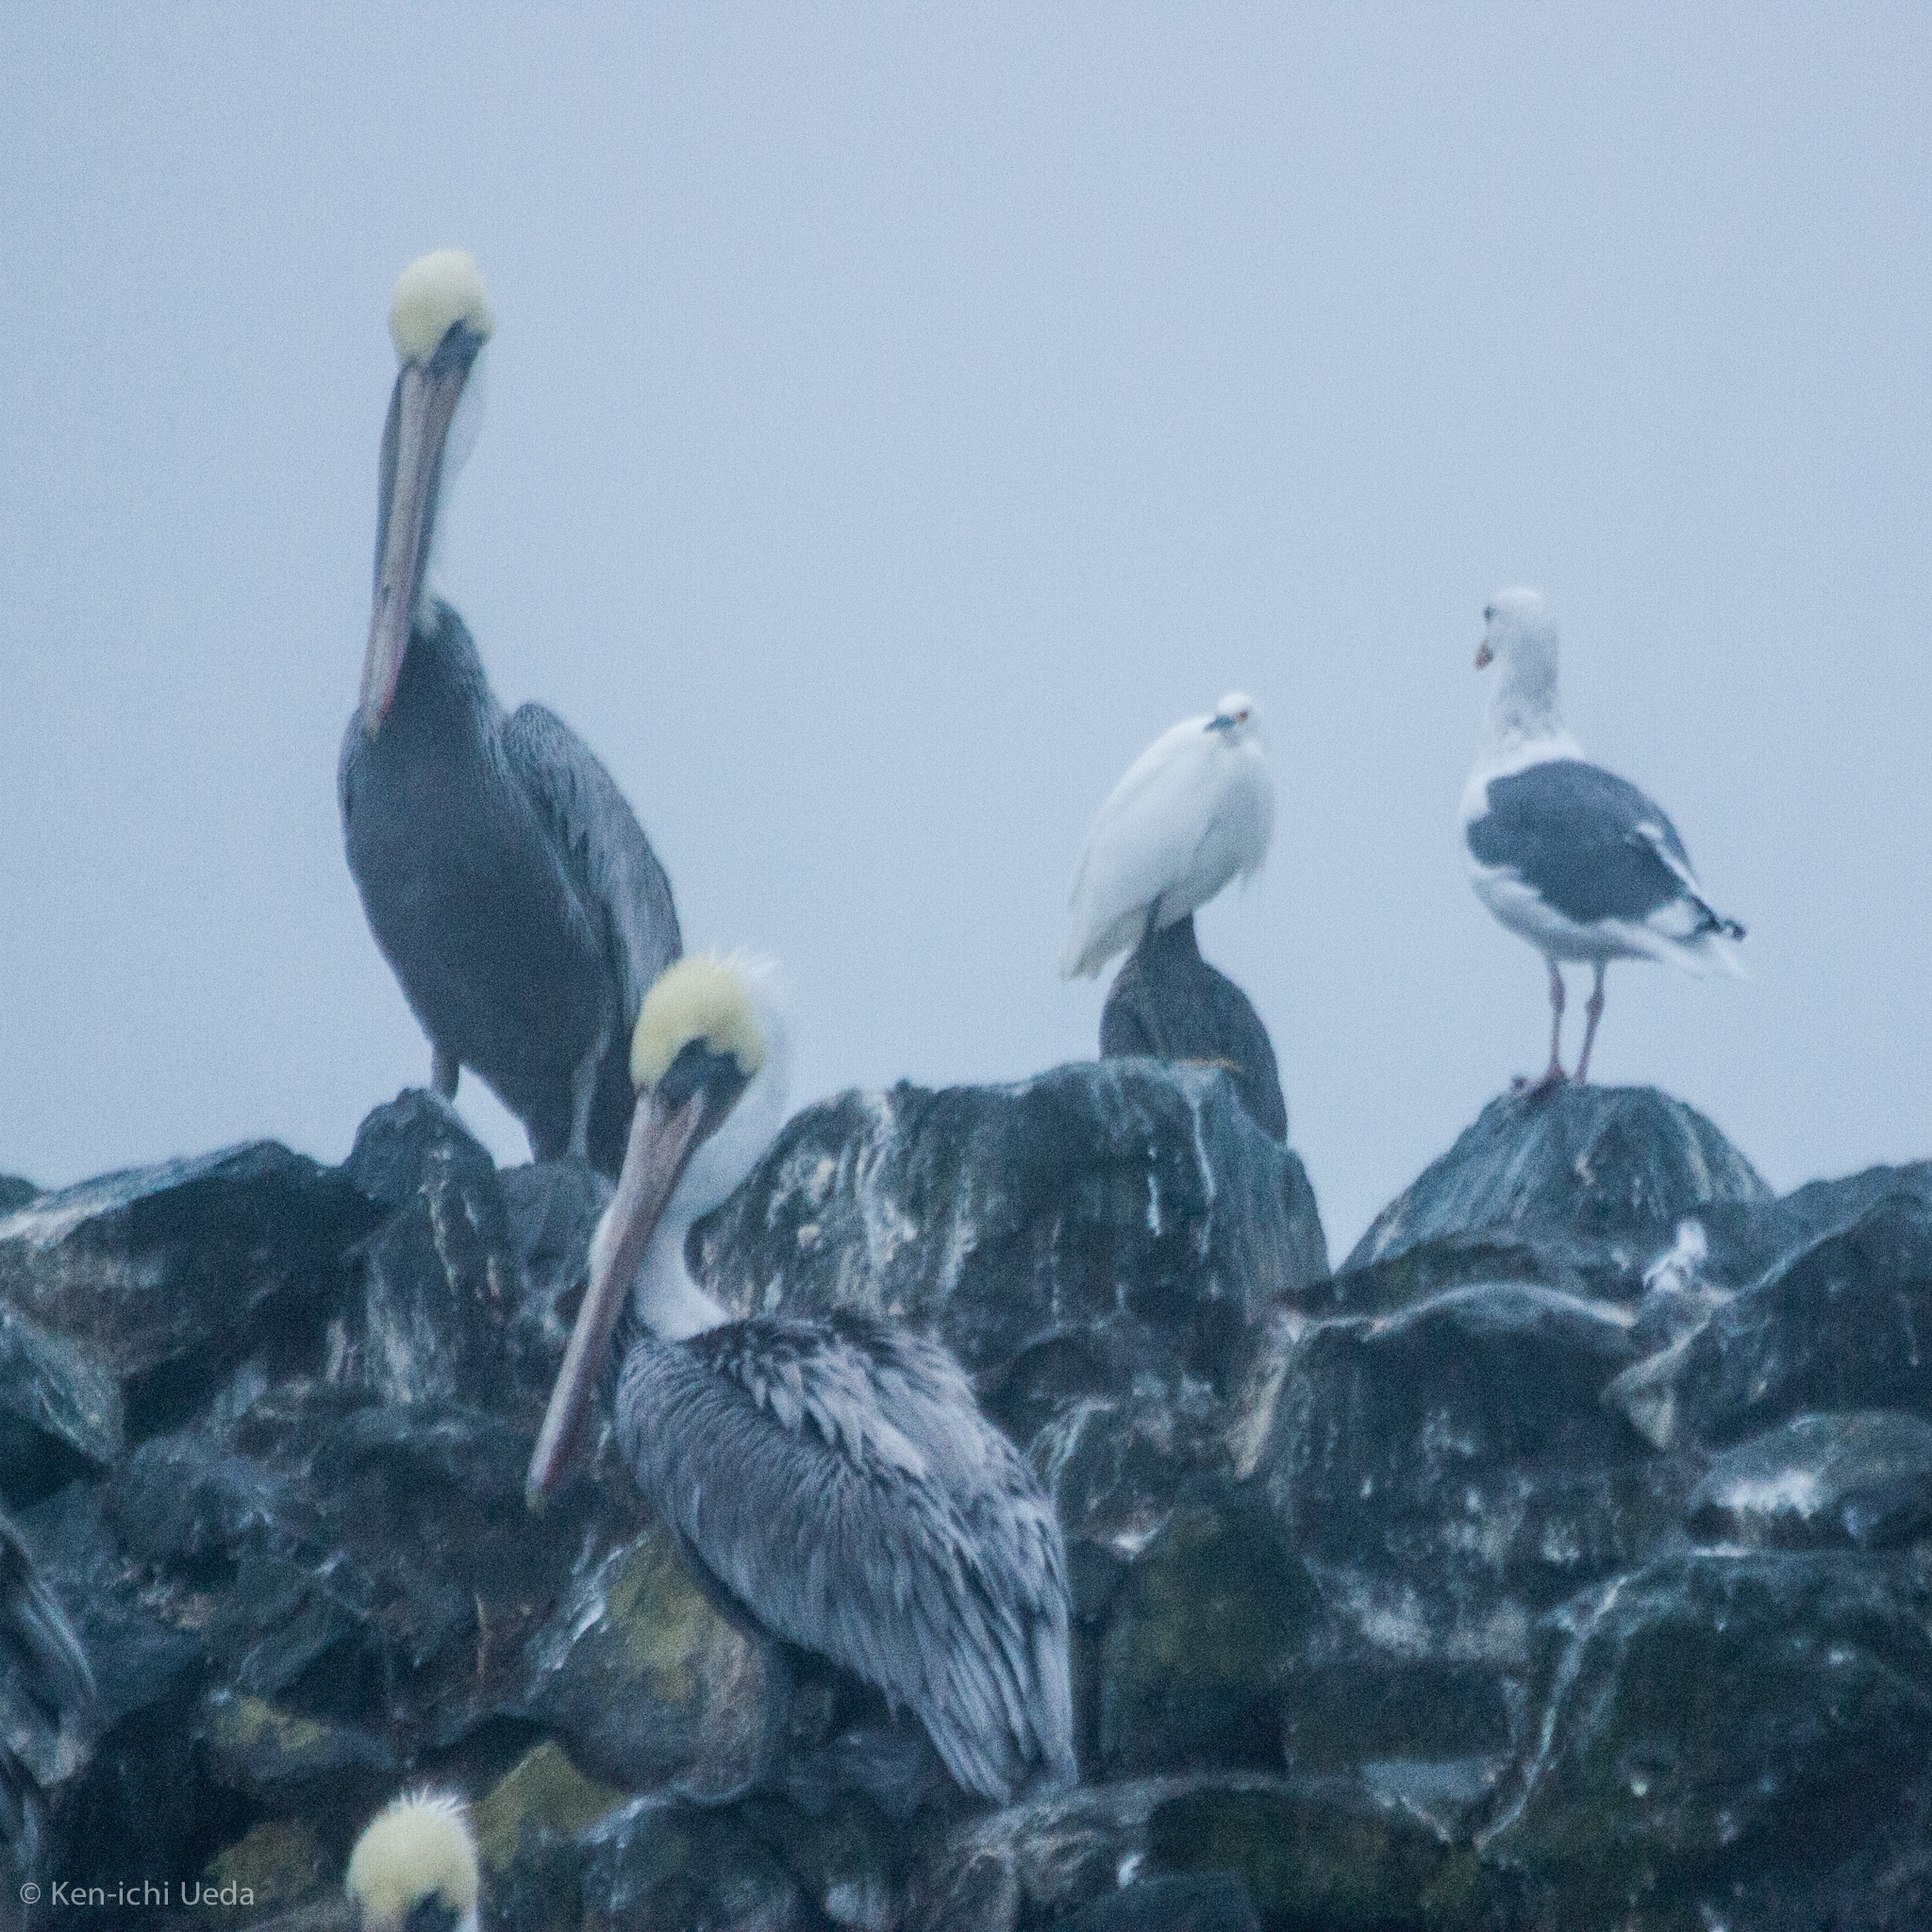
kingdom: Animalia
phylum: Chordata
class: Aves
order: Pelecaniformes
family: Pelecanidae
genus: Pelecanus
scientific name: Pelecanus occidentalis
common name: Brown pelican
